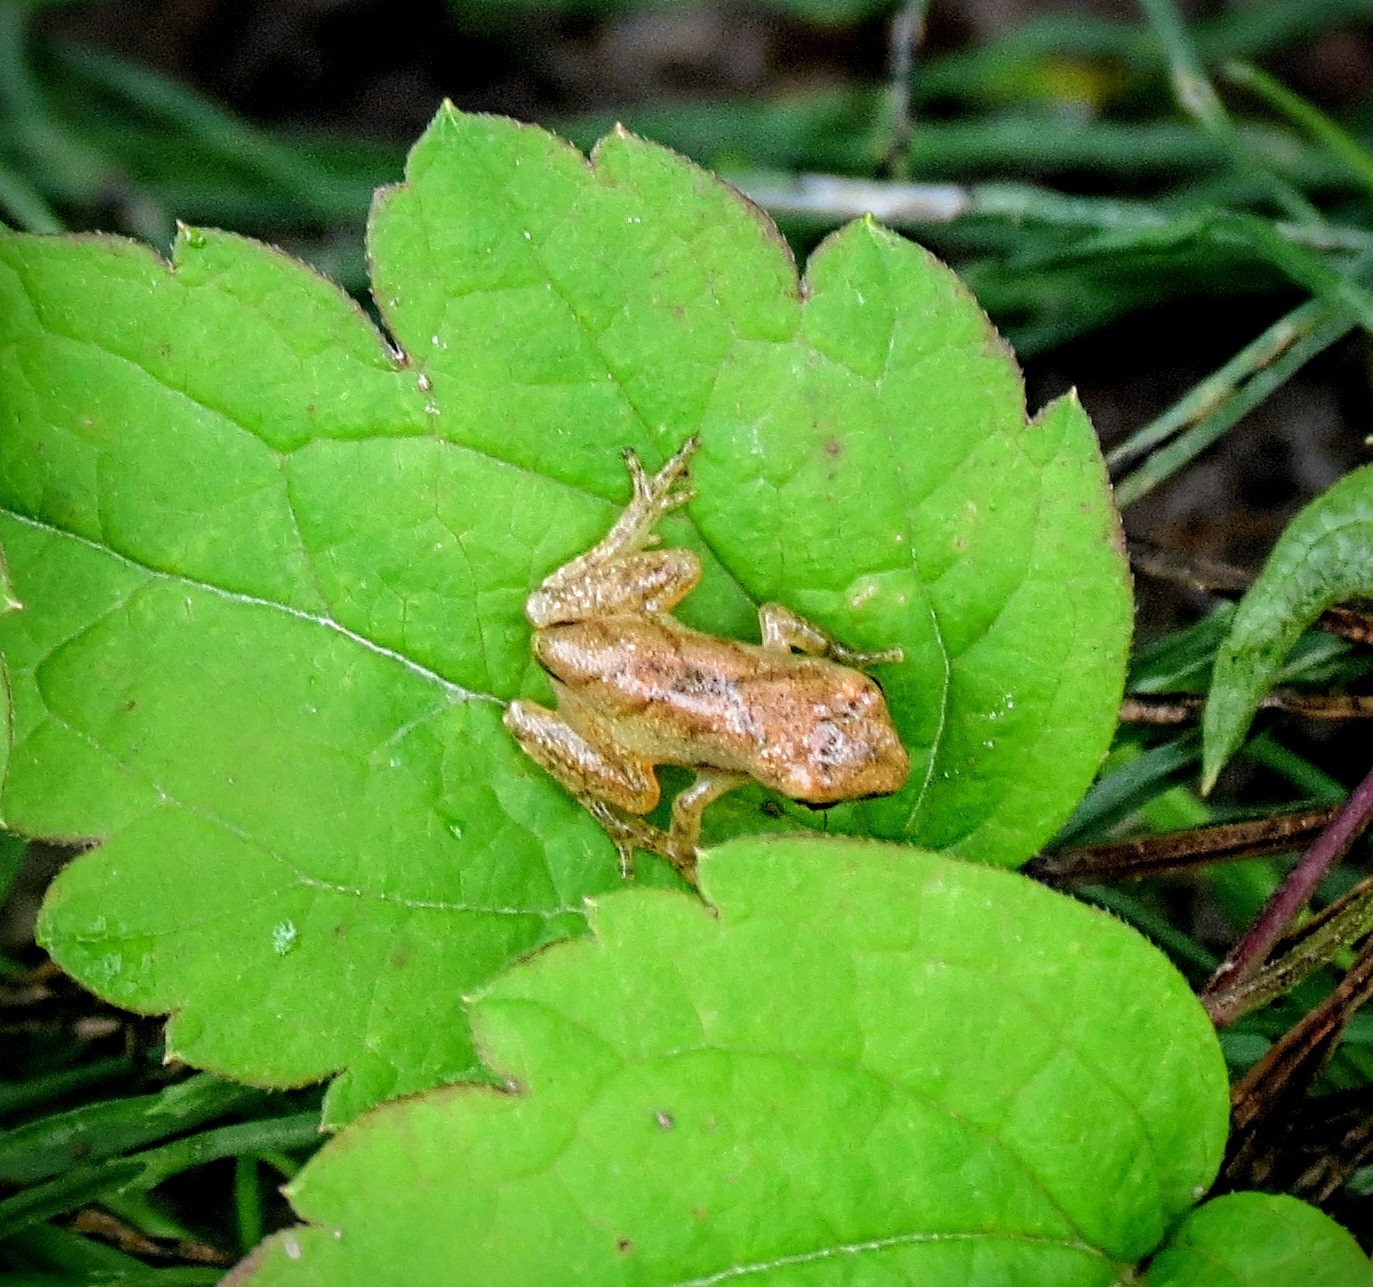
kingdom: Animalia
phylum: Chordata
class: Amphibia
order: Anura
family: Hylidae
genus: Pseudacris
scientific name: Pseudacris crucifer
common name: Spring peeper
